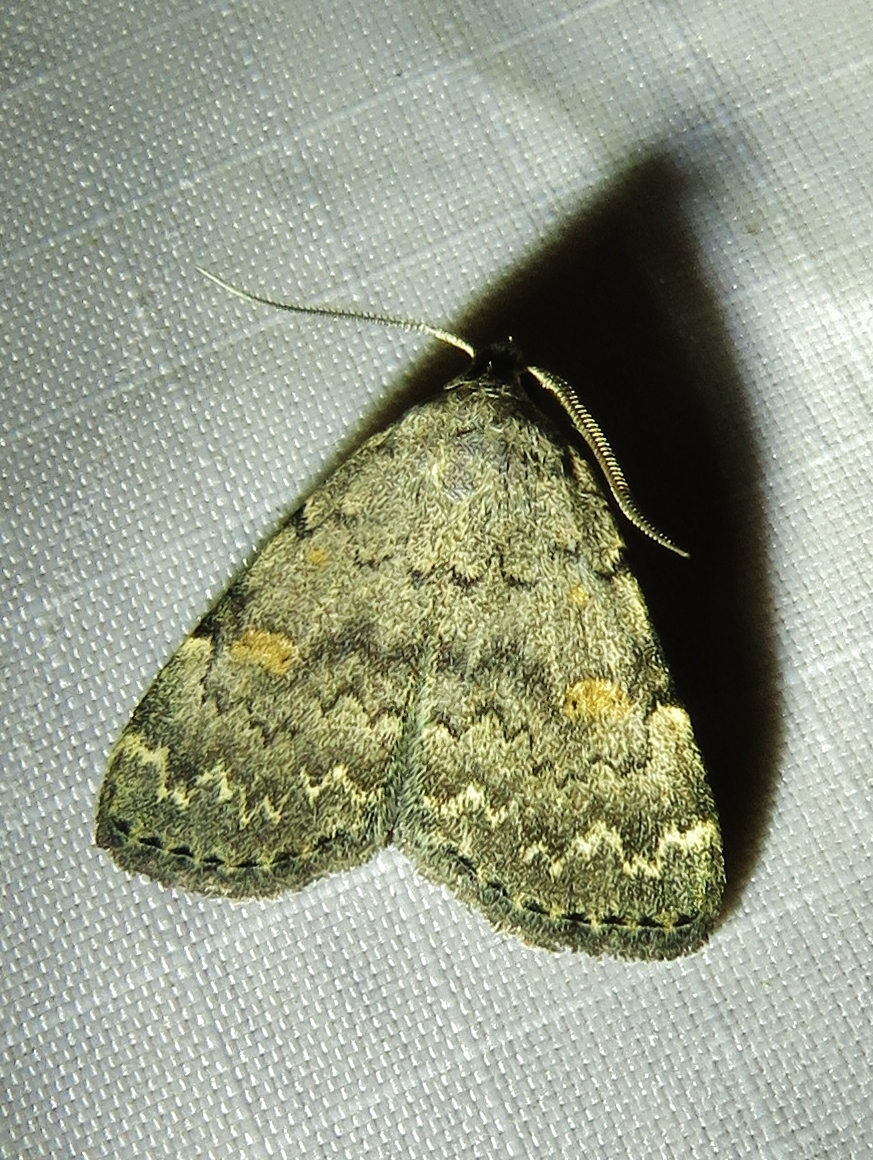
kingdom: Animalia
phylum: Arthropoda
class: Insecta
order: Lepidoptera
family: Erebidae
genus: Idia
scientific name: Idia aemula
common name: Common idia moth
